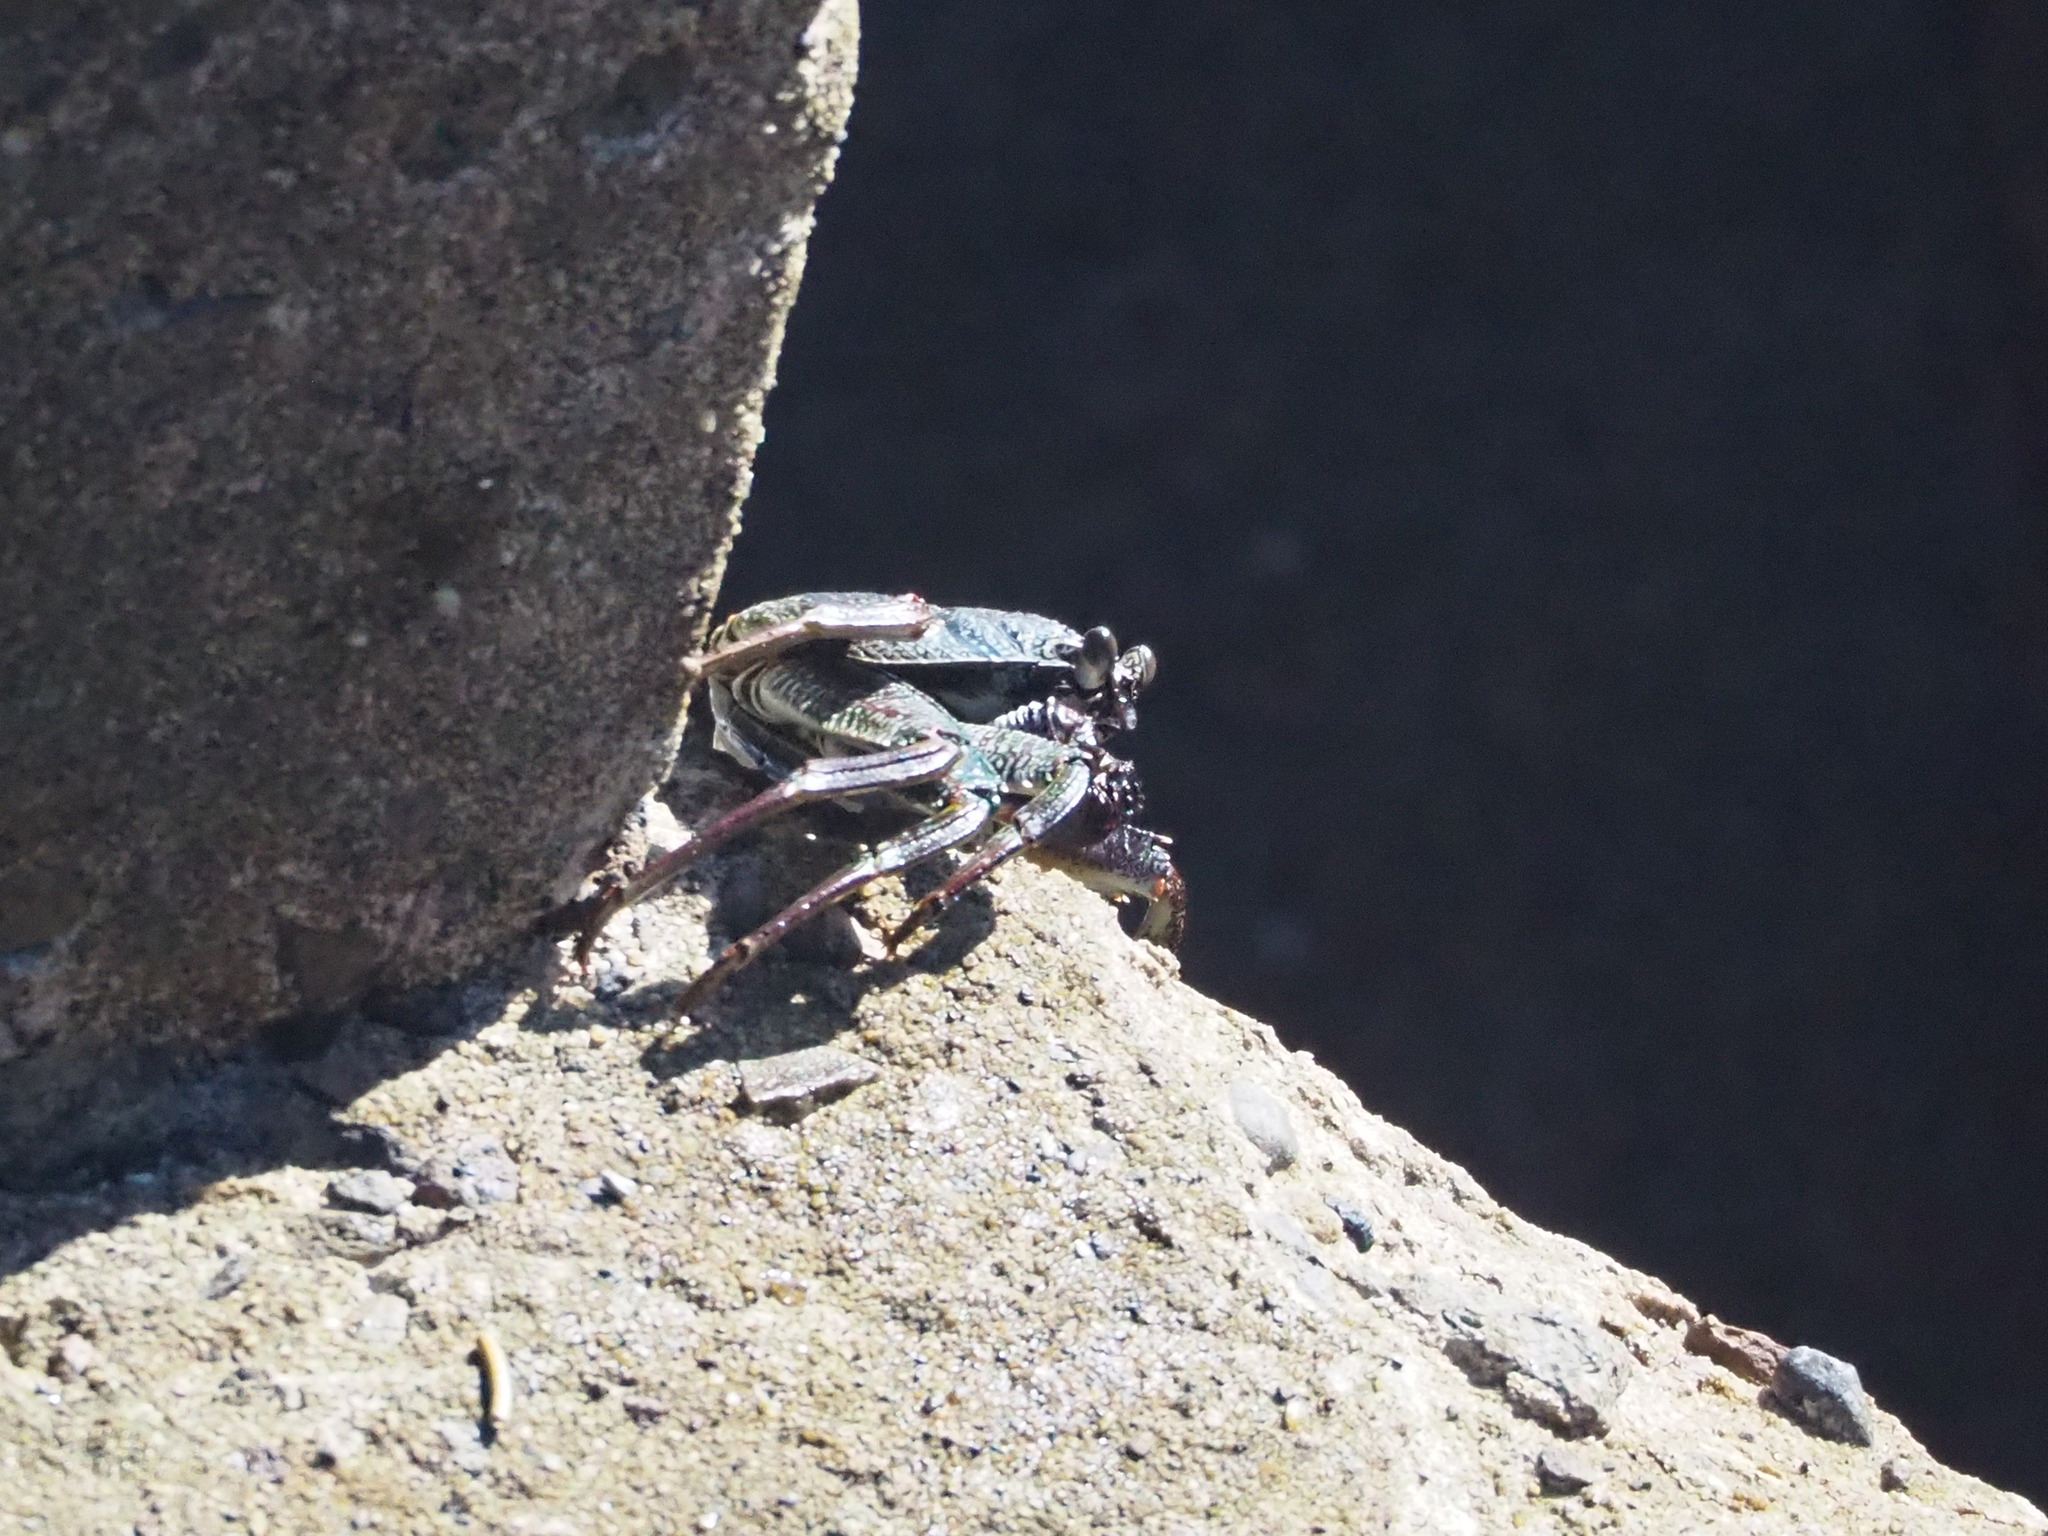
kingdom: Animalia
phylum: Arthropoda
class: Malacostraca
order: Decapoda
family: Grapsidae
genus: Grapsus
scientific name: Grapsus tenuicrustatus
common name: Natal lightfoot crab
